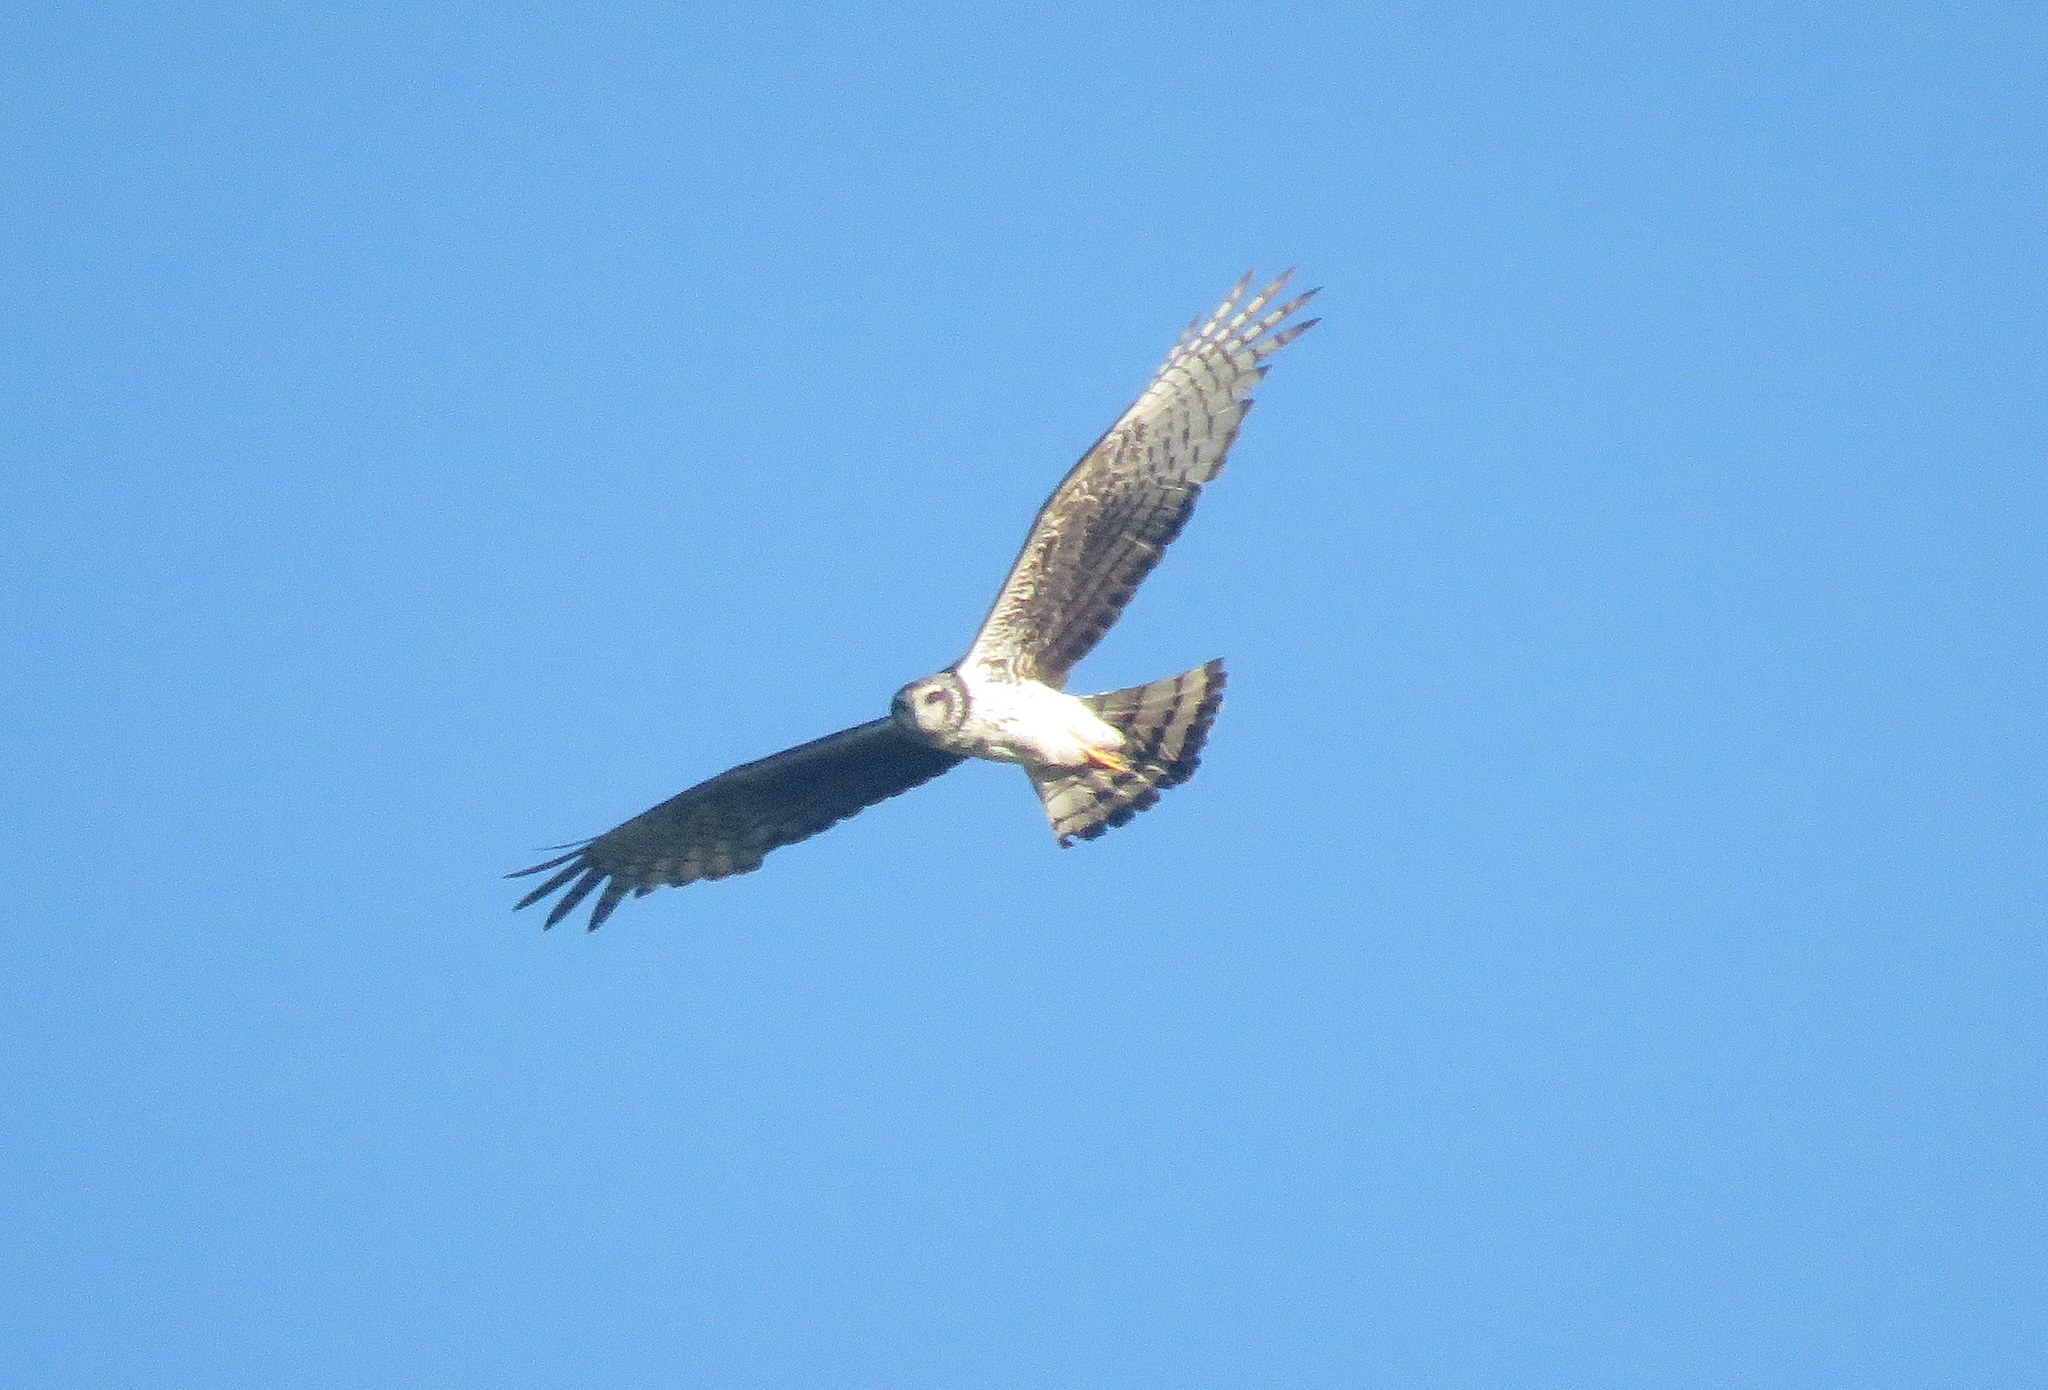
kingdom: Animalia
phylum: Chordata
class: Aves
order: Accipitriformes
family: Accipitridae
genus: Circus
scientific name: Circus buffoni
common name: Long-winged harrier
